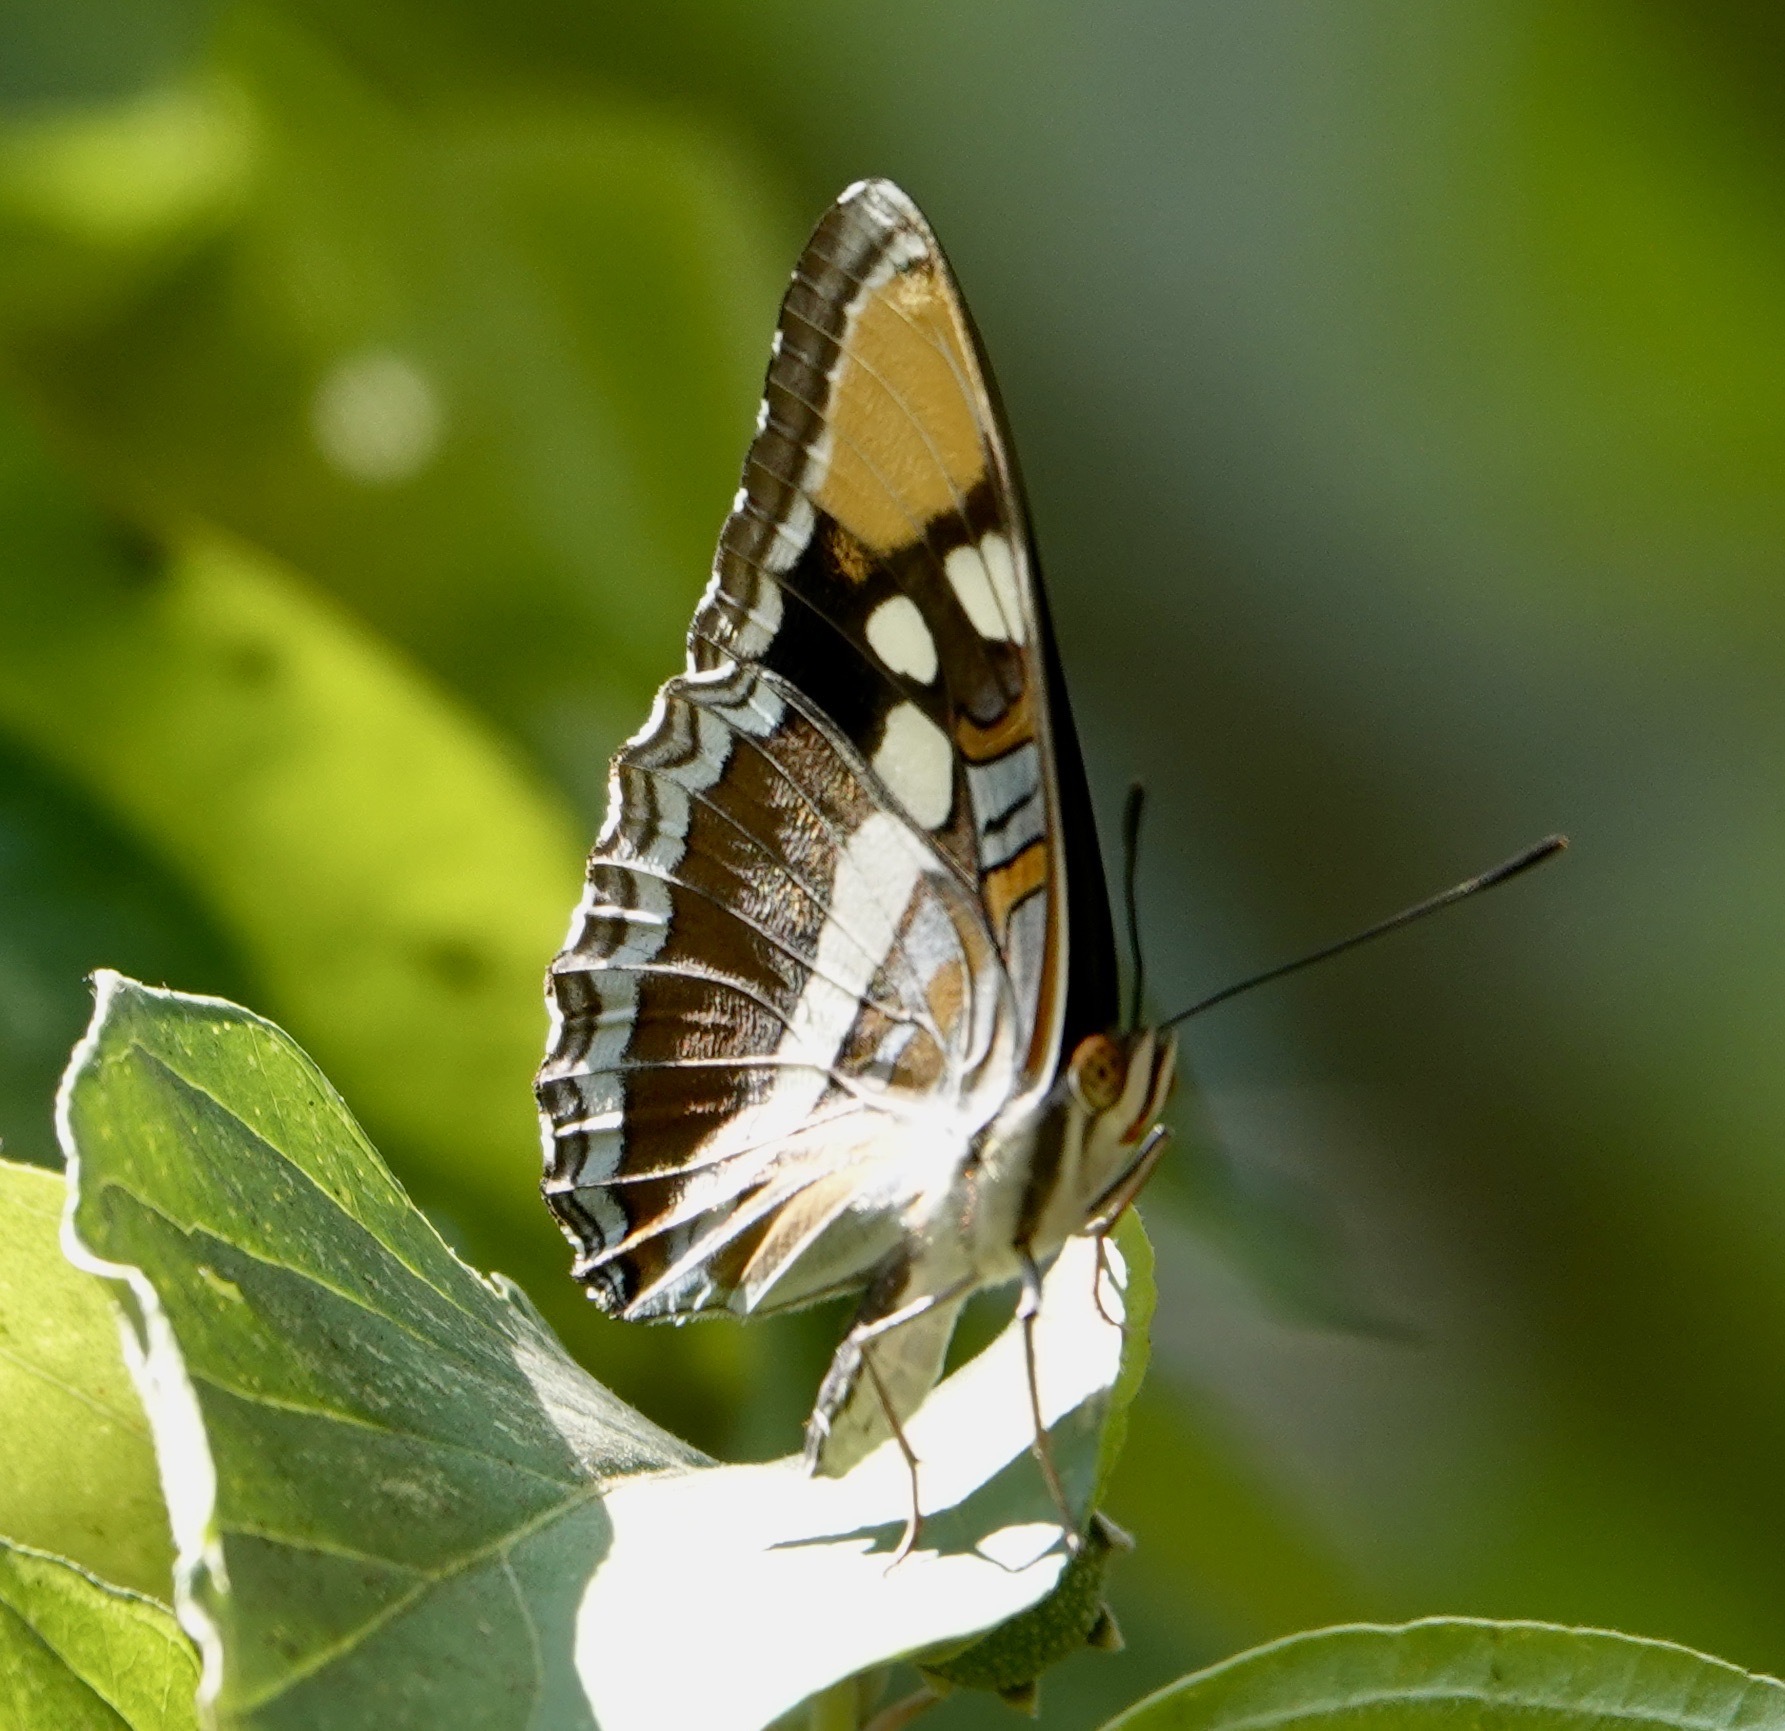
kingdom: Animalia
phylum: Arthropoda
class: Insecta
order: Lepidoptera
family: Nymphalidae
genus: Limenitis
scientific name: Limenitis bredowii
